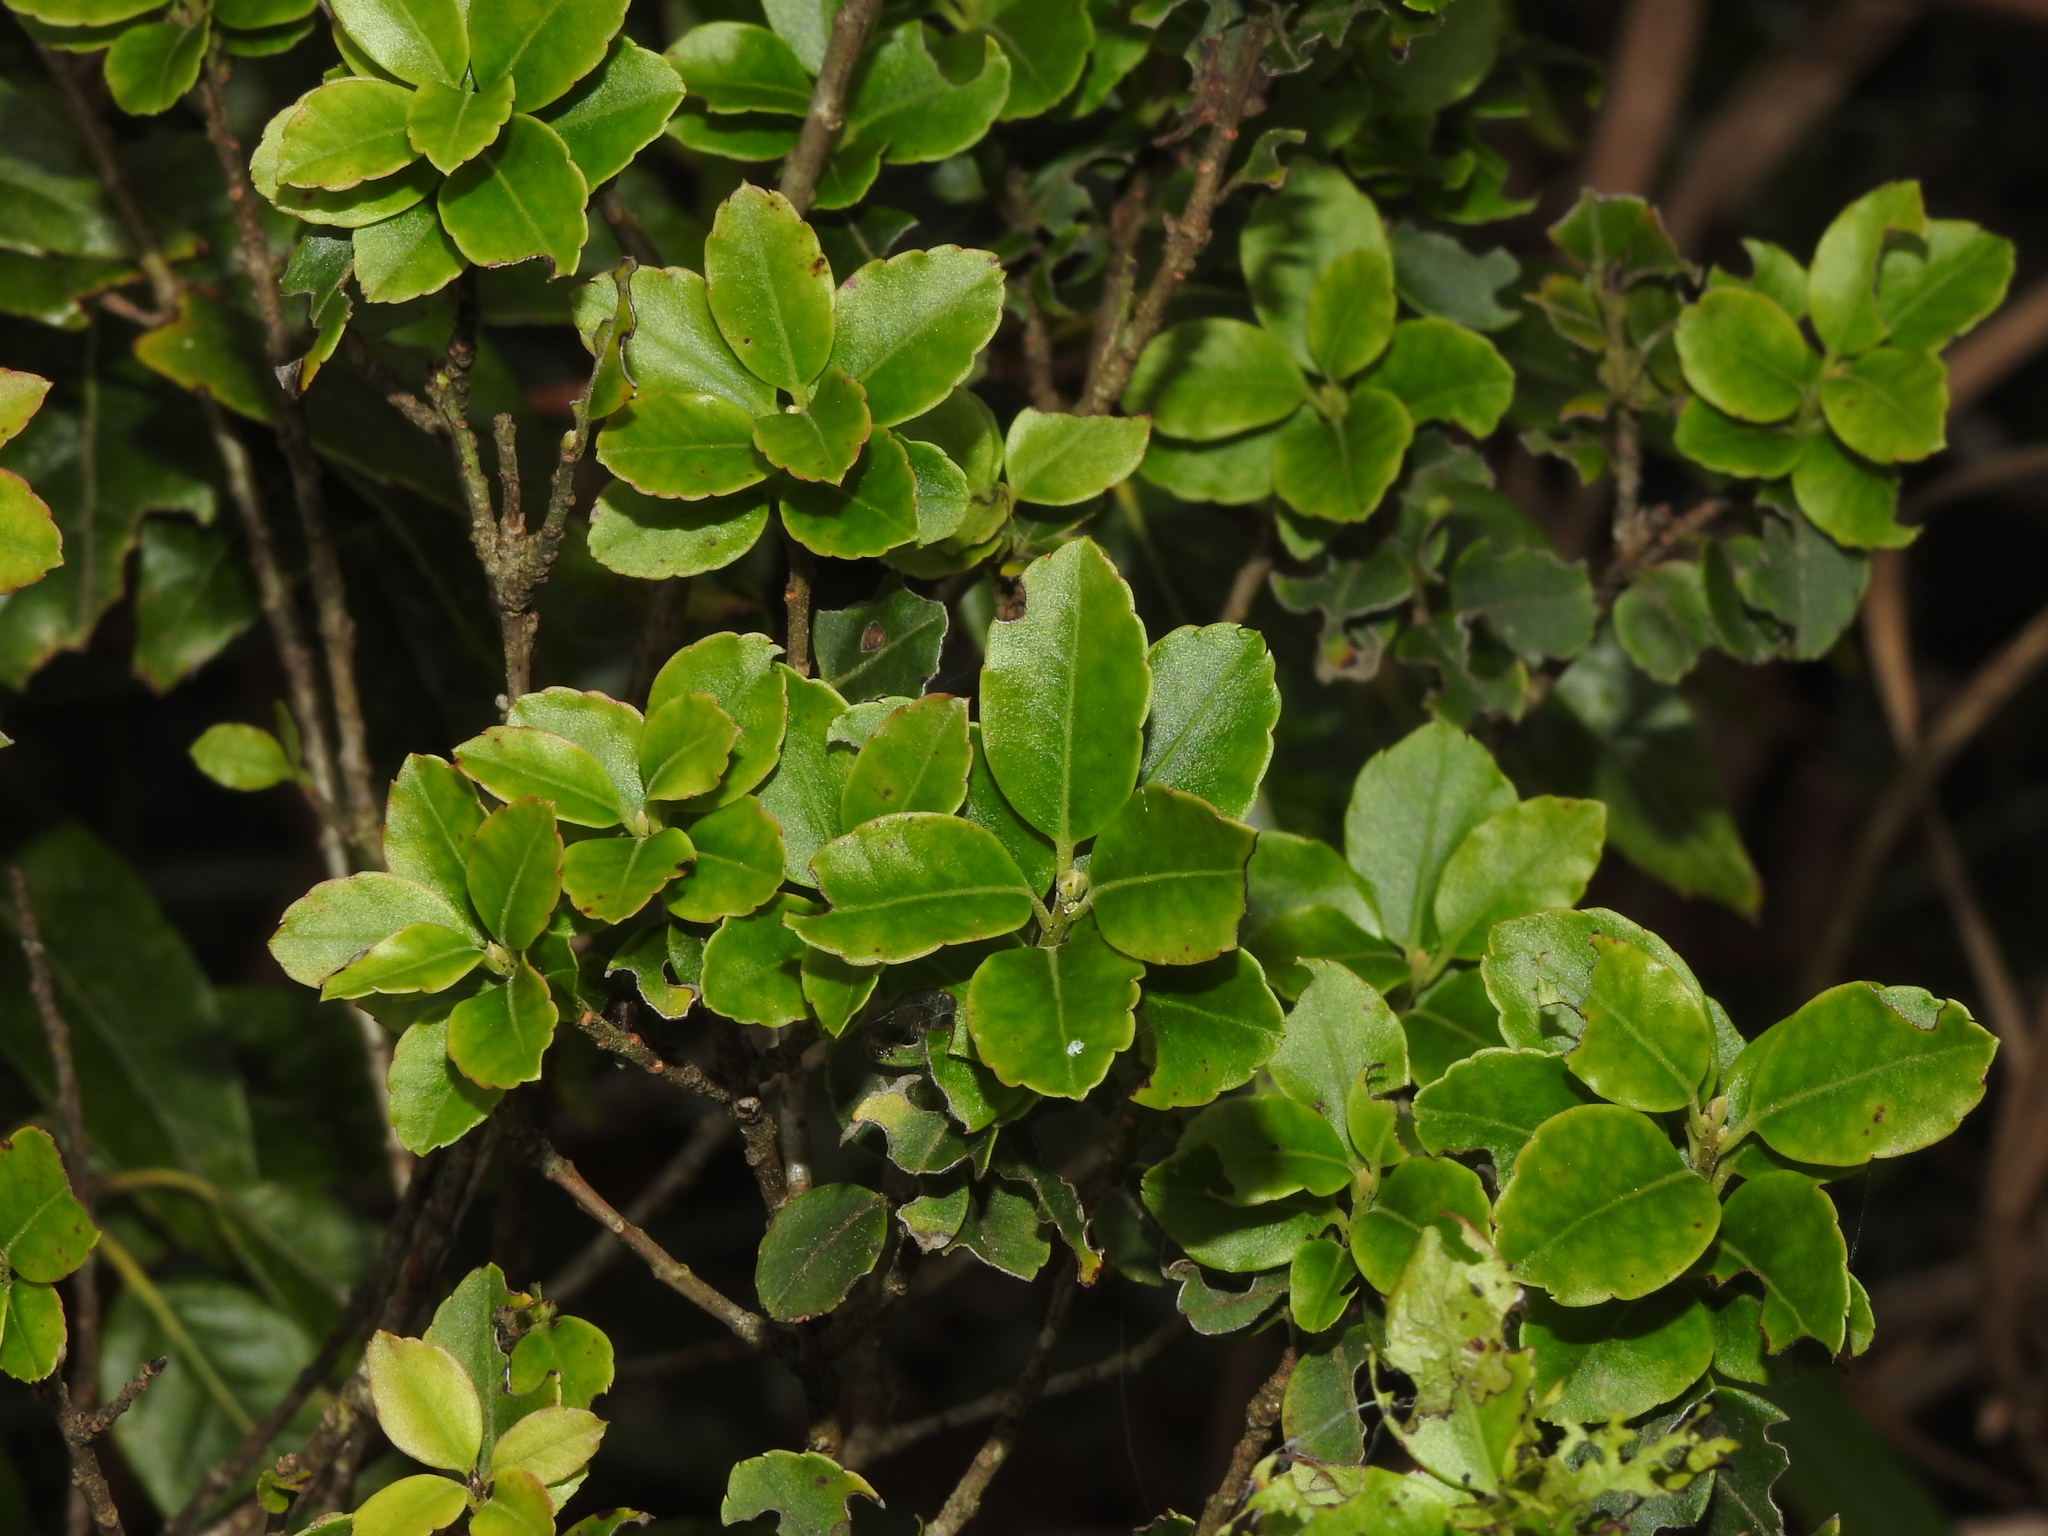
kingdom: Plantae
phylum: Tracheophyta
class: Magnoliopsida
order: Aquifoliales
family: Aquifoliaceae
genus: Ilex
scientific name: Ilex sugerokii
